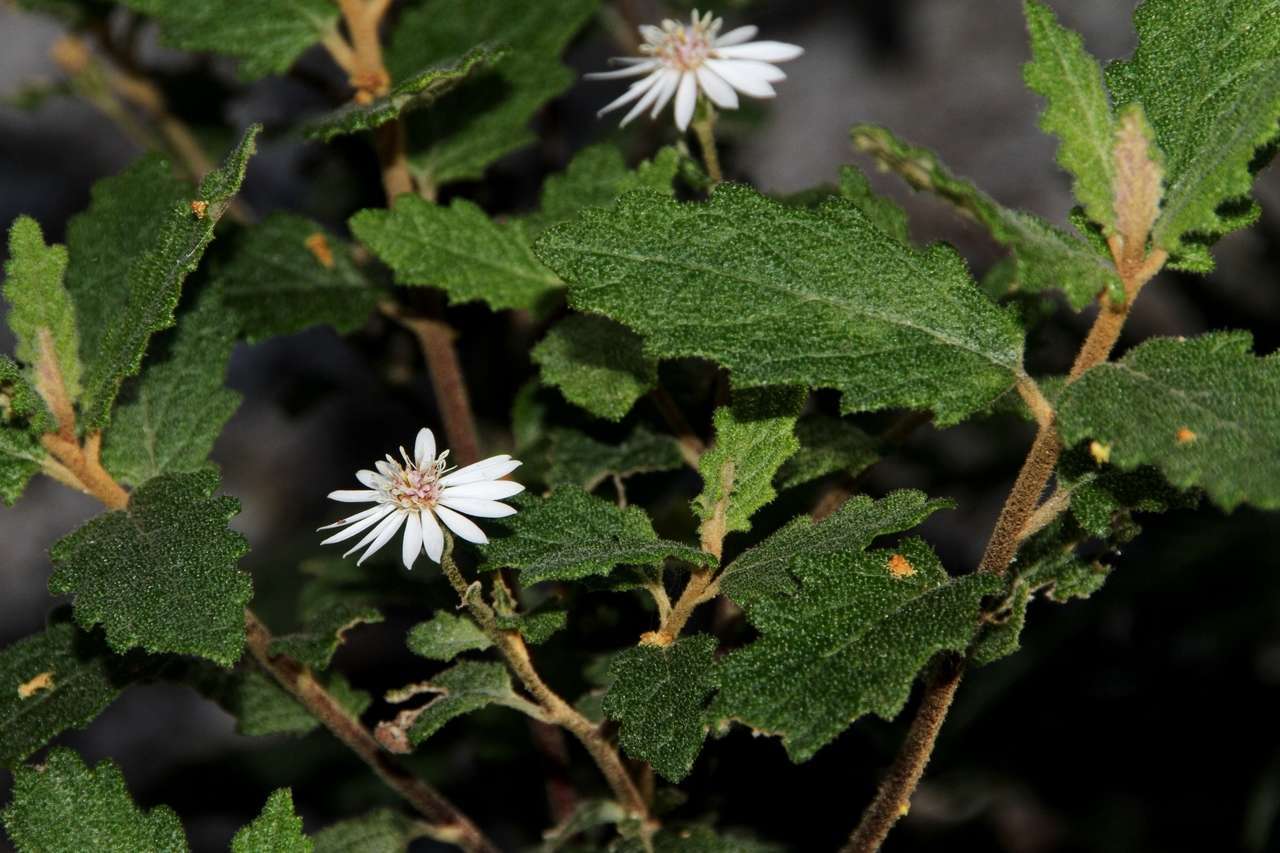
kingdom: Plantae
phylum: Tracheophyta
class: Magnoliopsida
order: Asterales
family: Asteraceae
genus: Olearia
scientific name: Olearia rugosa
